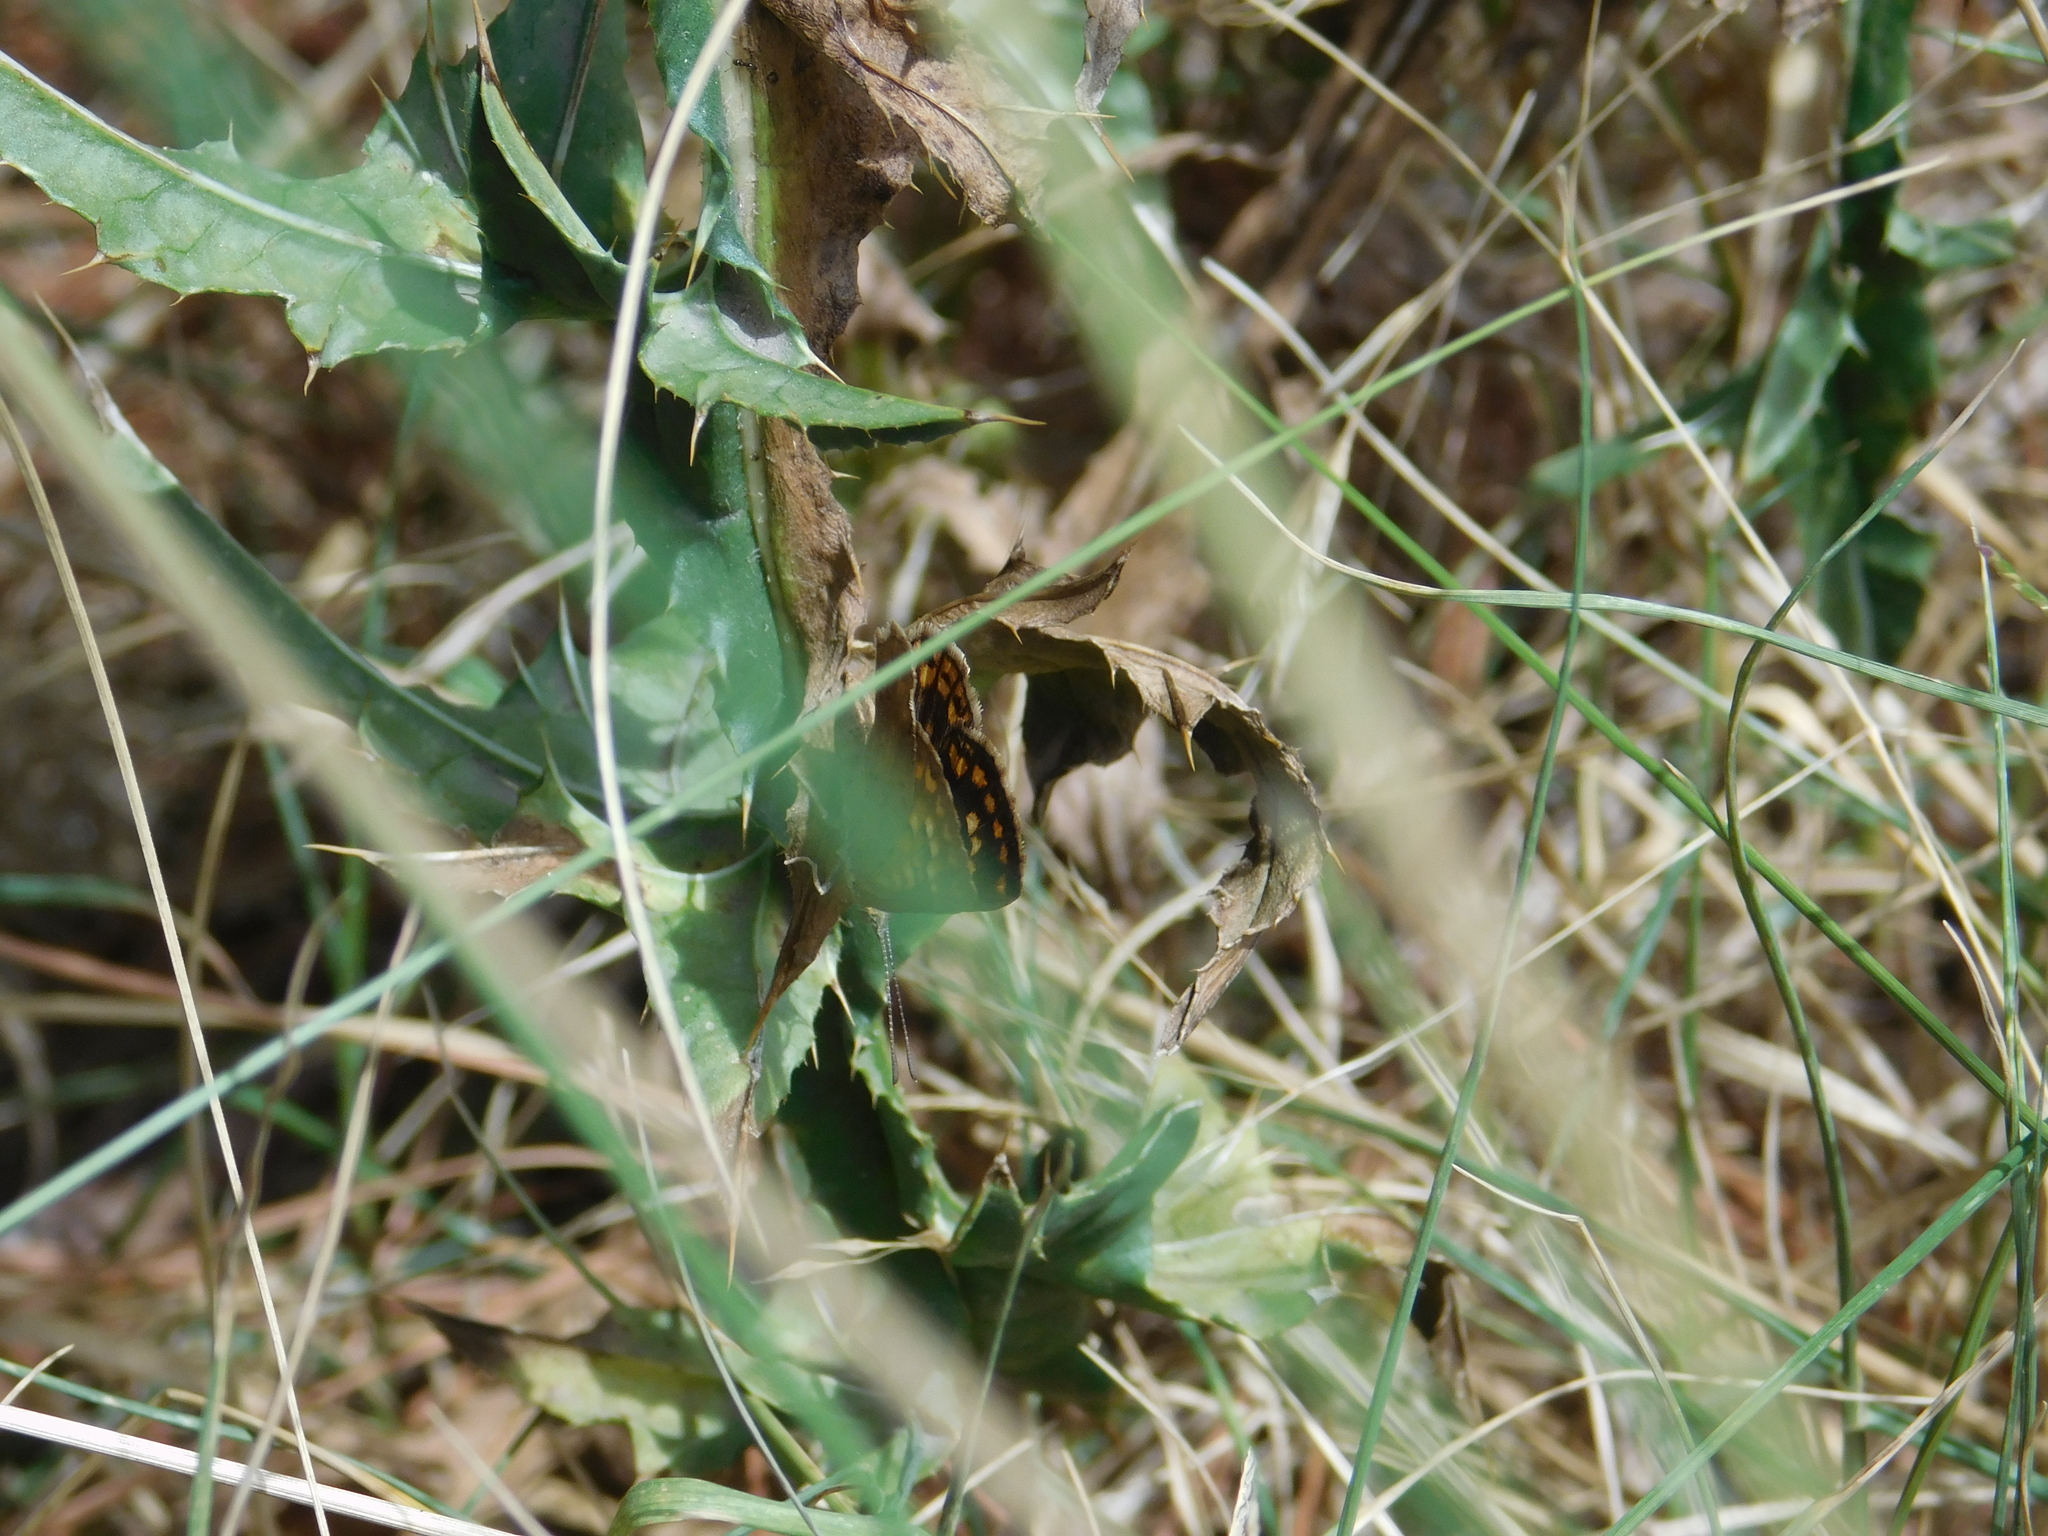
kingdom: Animalia
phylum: Arthropoda
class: Insecta
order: Lepidoptera
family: Lycaenidae
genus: Aricoris
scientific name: Aricoris indistincta
